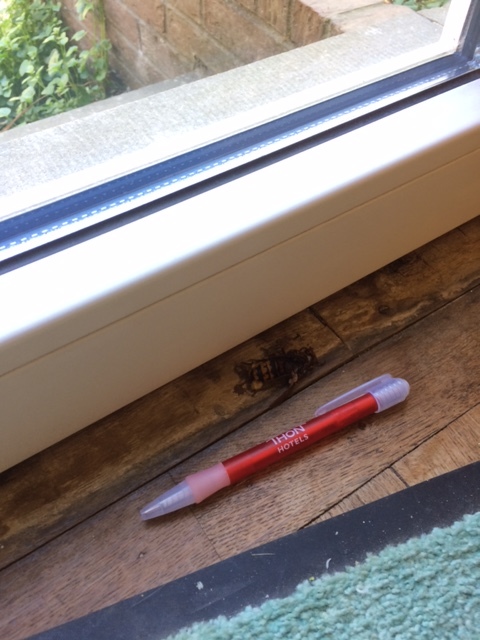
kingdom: Animalia
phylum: Arthropoda
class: Insecta
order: Hymenoptera
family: Vespidae
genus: Vespa
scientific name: Vespa crabro
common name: Hornet
